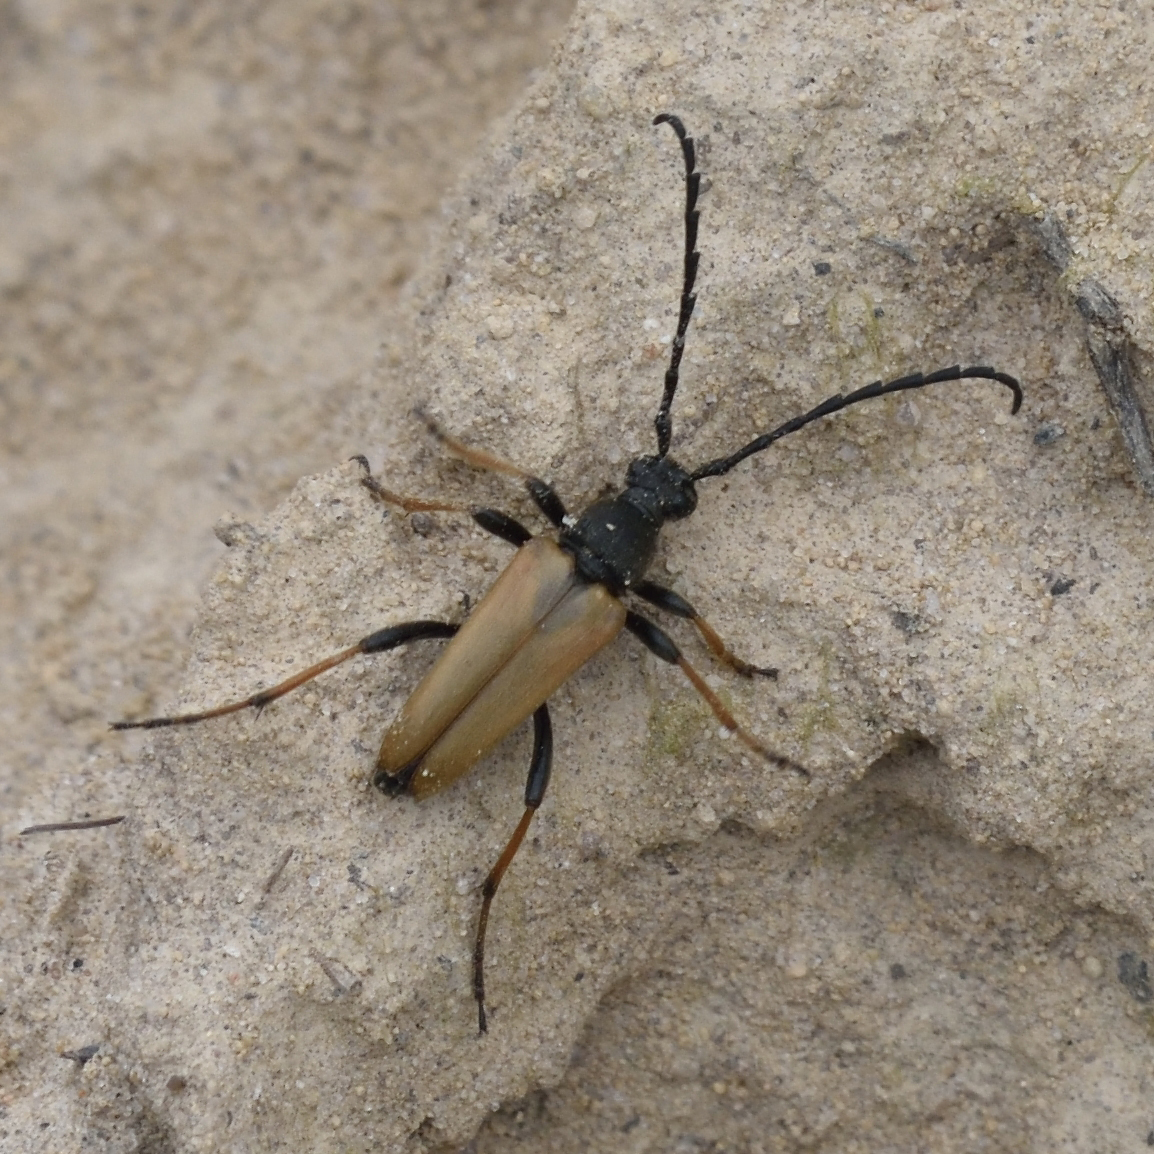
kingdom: Animalia
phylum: Arthropoda
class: Insecta
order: Coleoptera
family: Cerambycidae
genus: Stictoleptura
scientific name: Stictoleptura rubra
